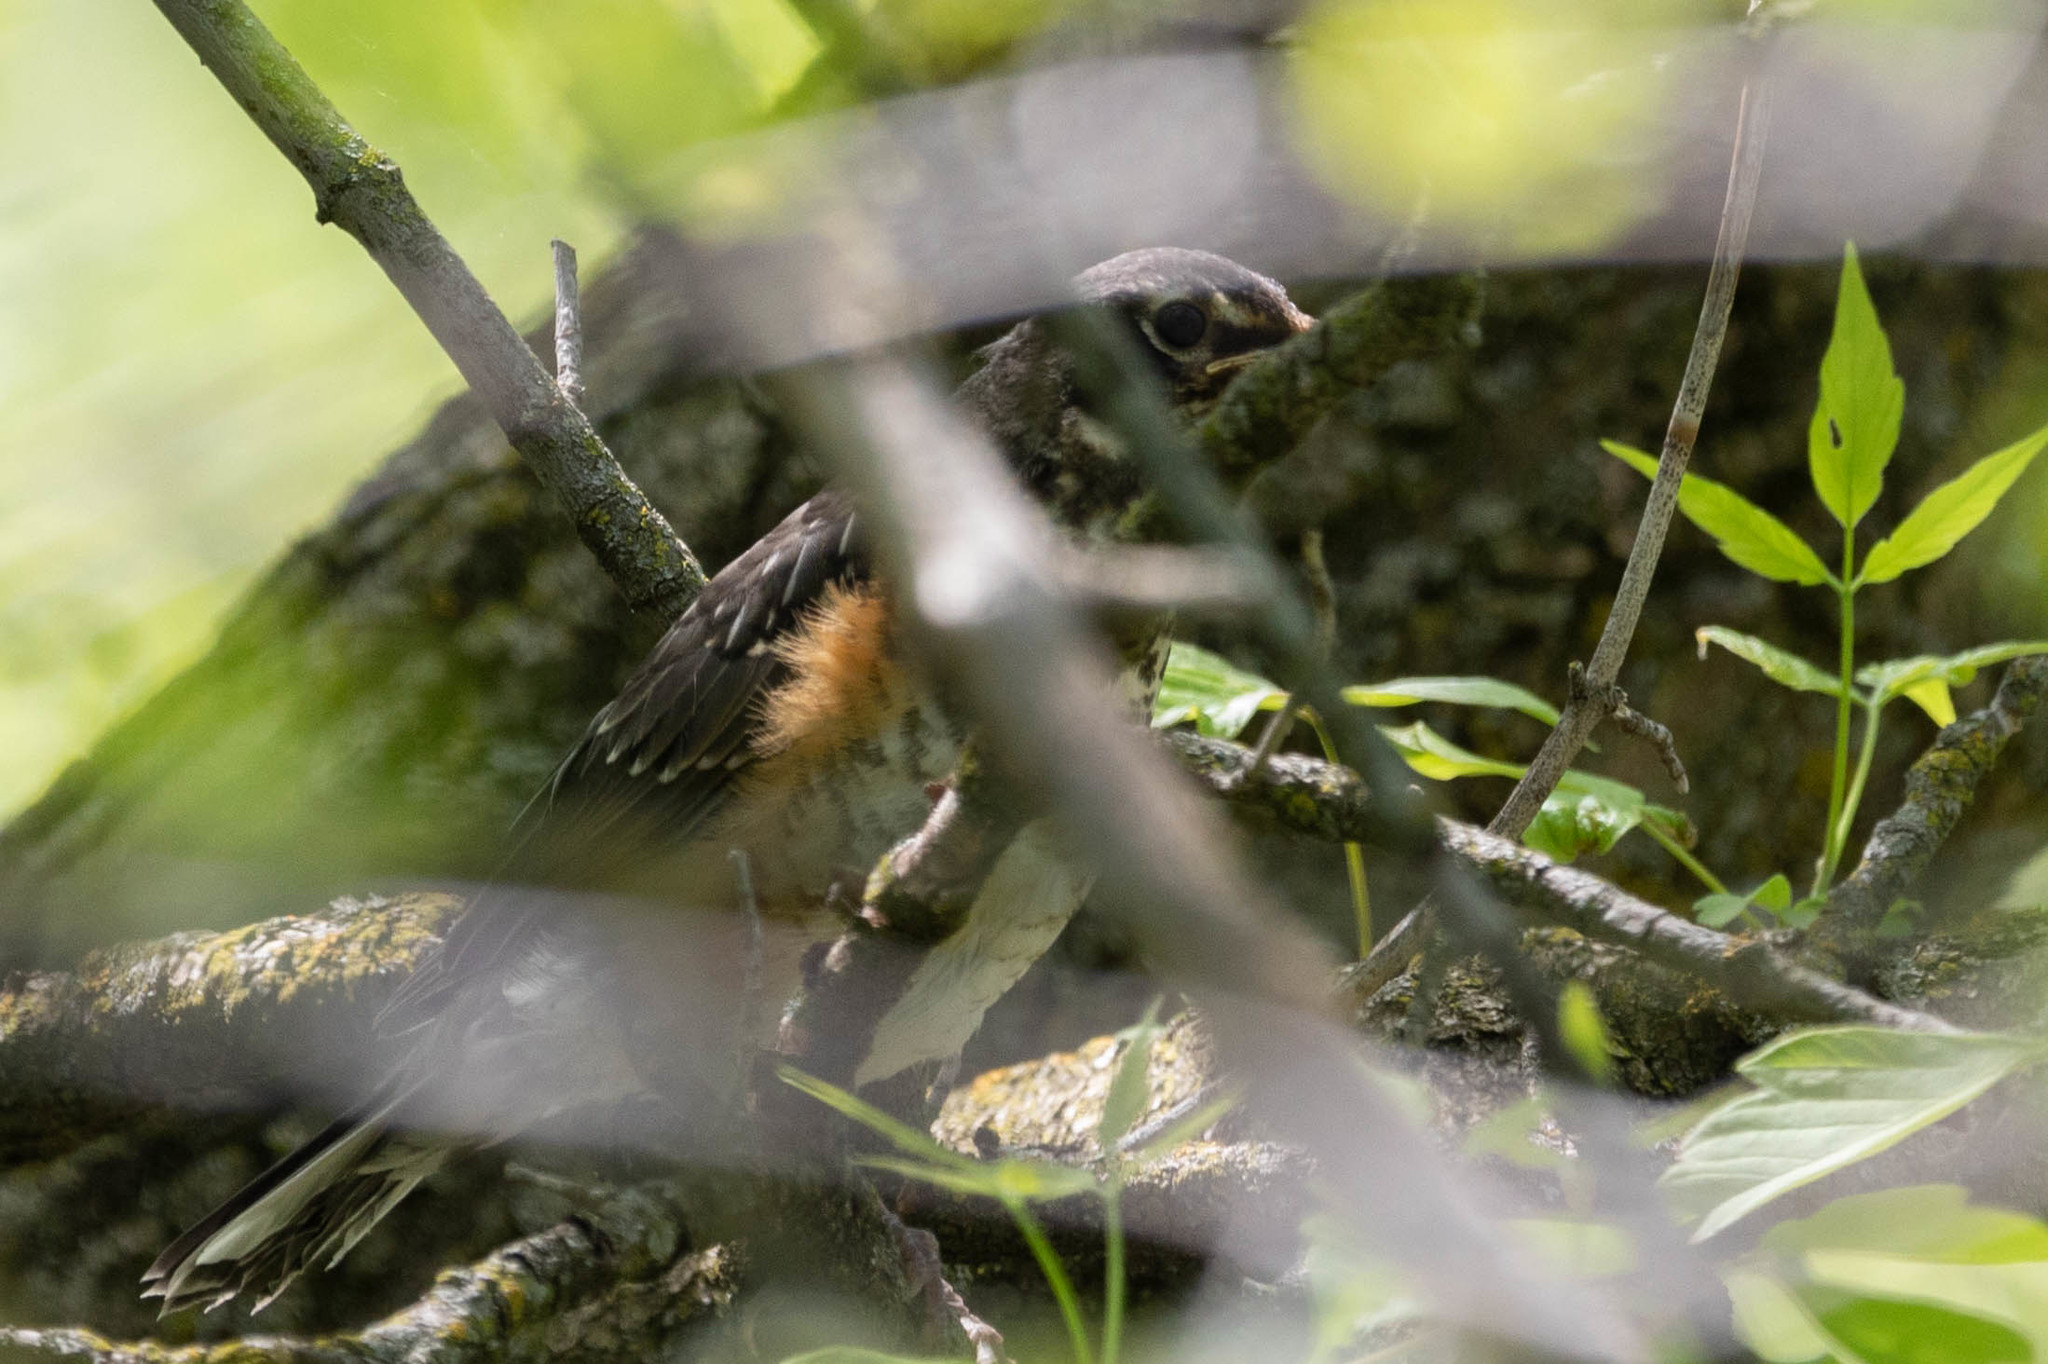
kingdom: Animalia
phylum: Chordata
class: Aves
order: Passeriformes
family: Turdidae
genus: Turdus
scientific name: Turdus migratorius
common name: American robin
